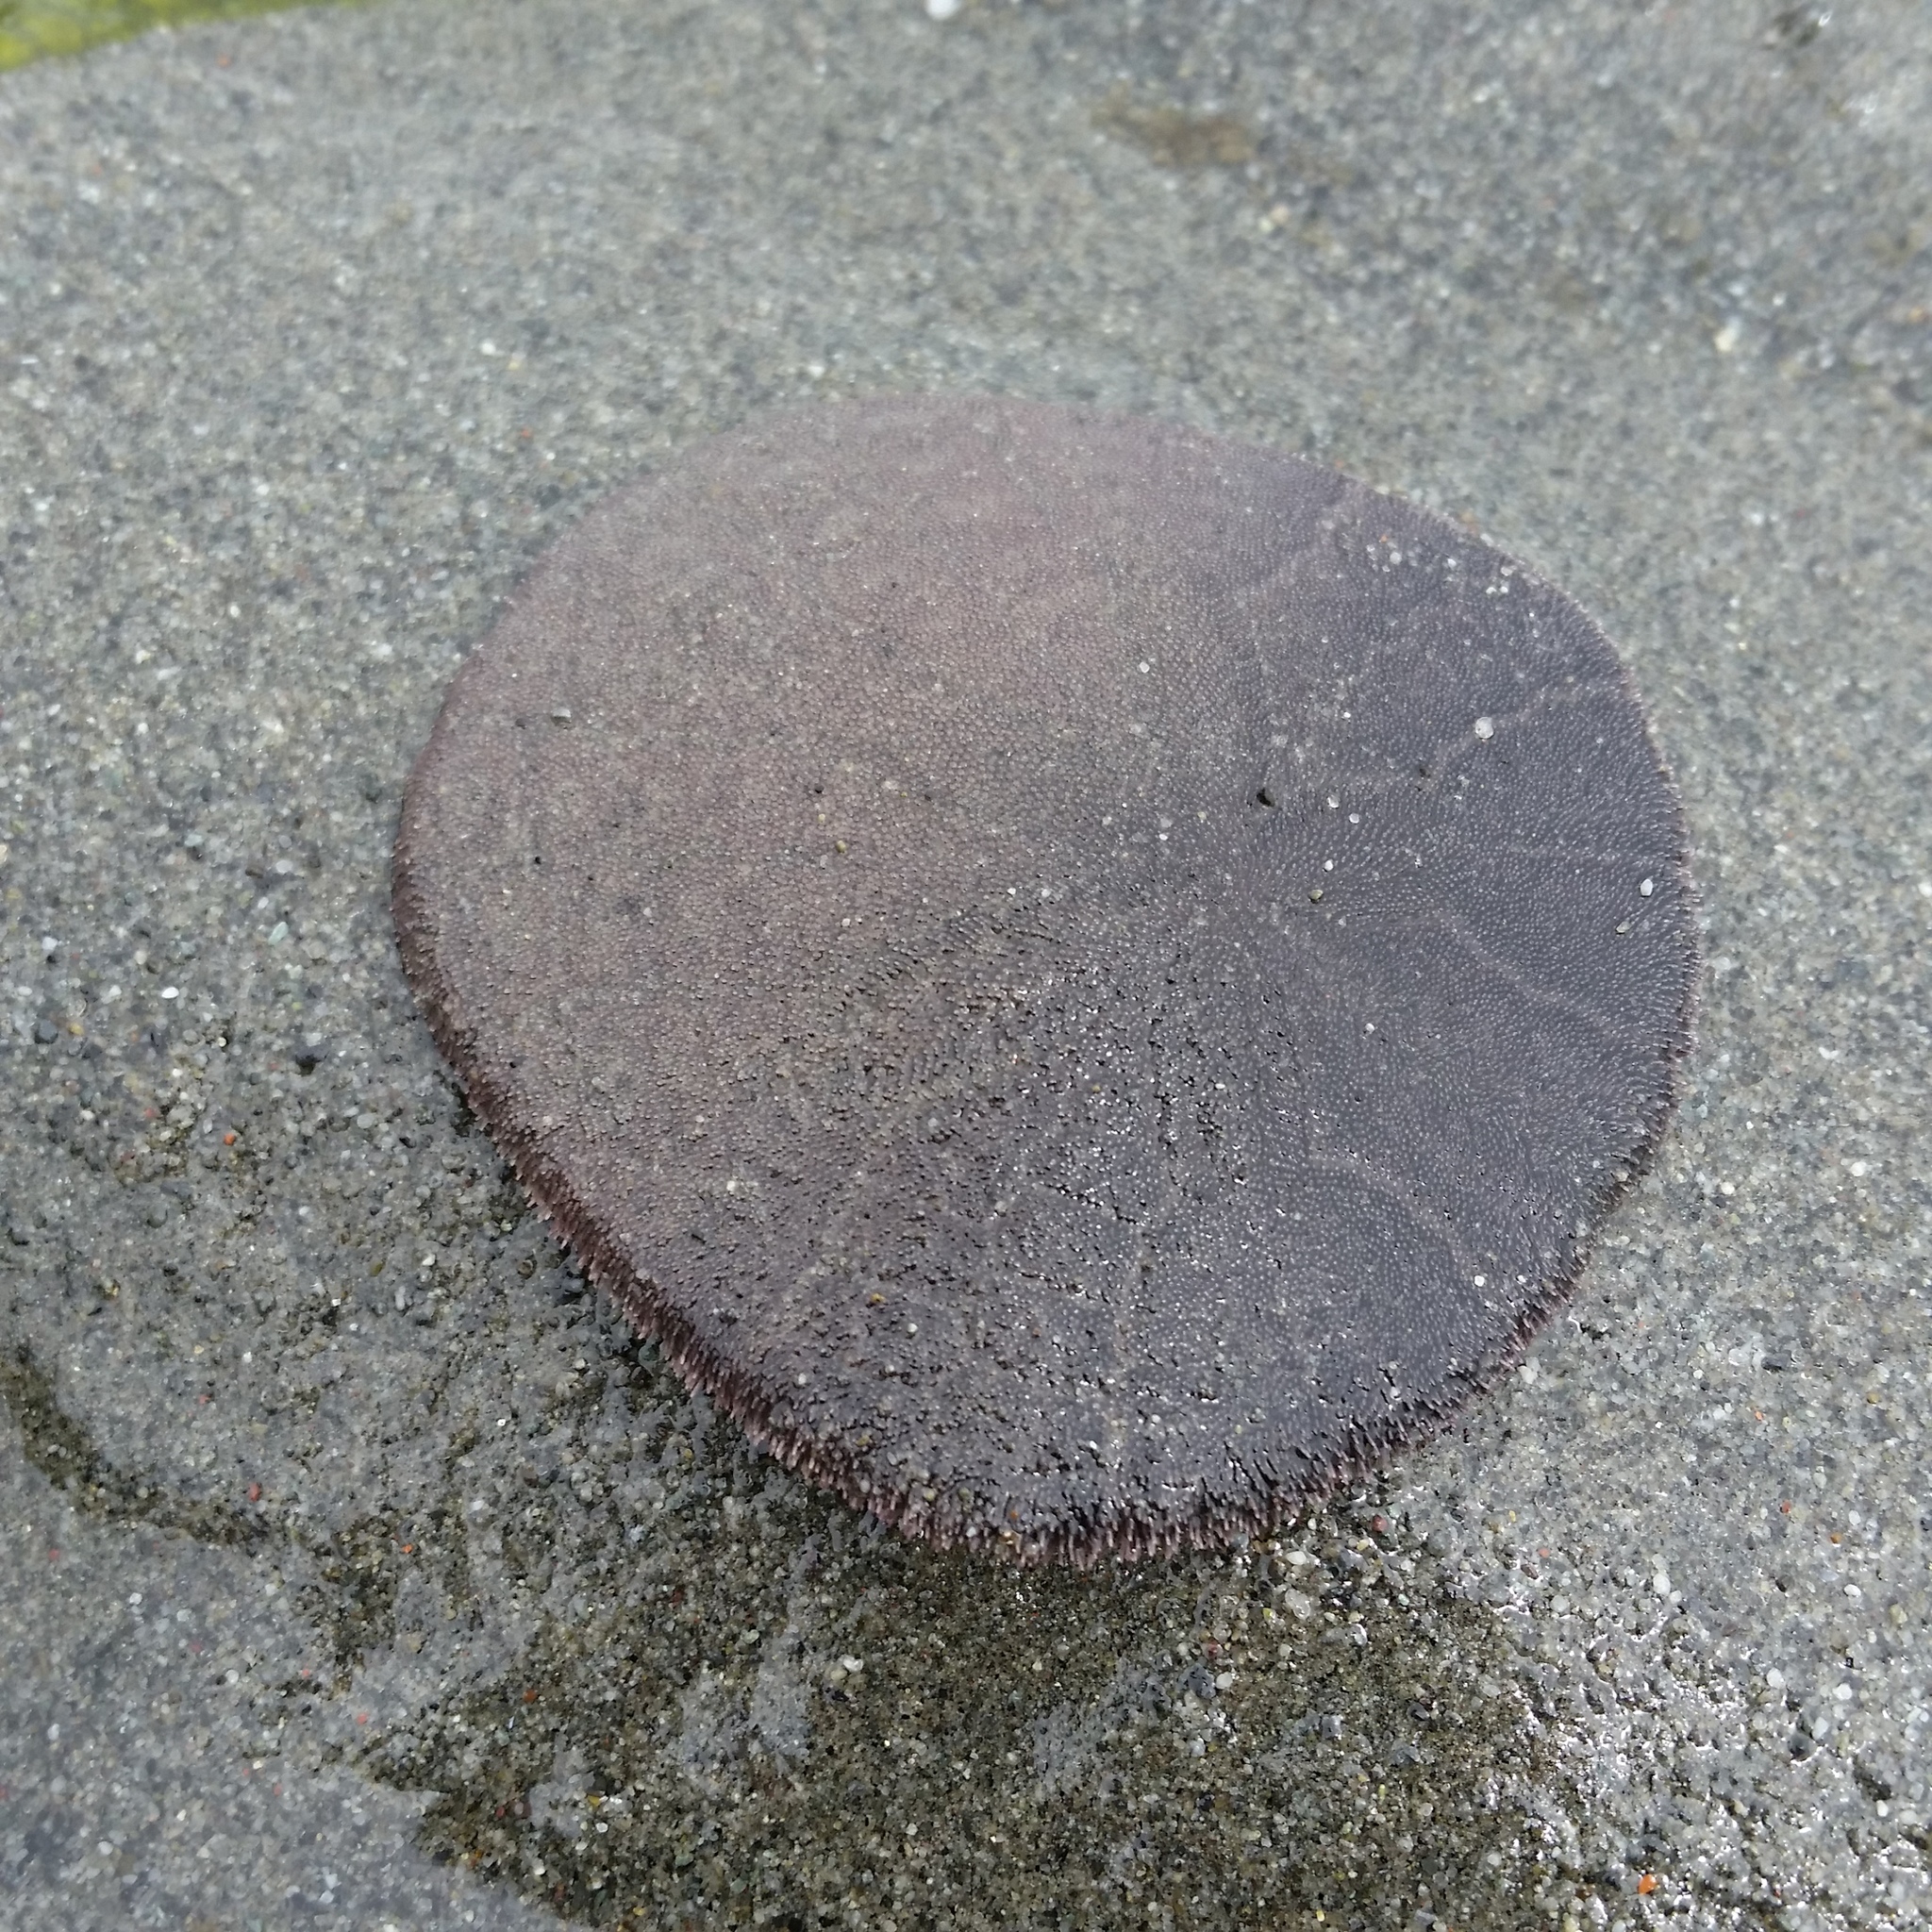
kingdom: Animalia
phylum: Echinodermata
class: Echinoidea
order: Echinolampadacea
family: Dendrasteridae
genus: Dendraster
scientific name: Dendraster excentricus
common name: Eccentric sand dollar sea urchin
